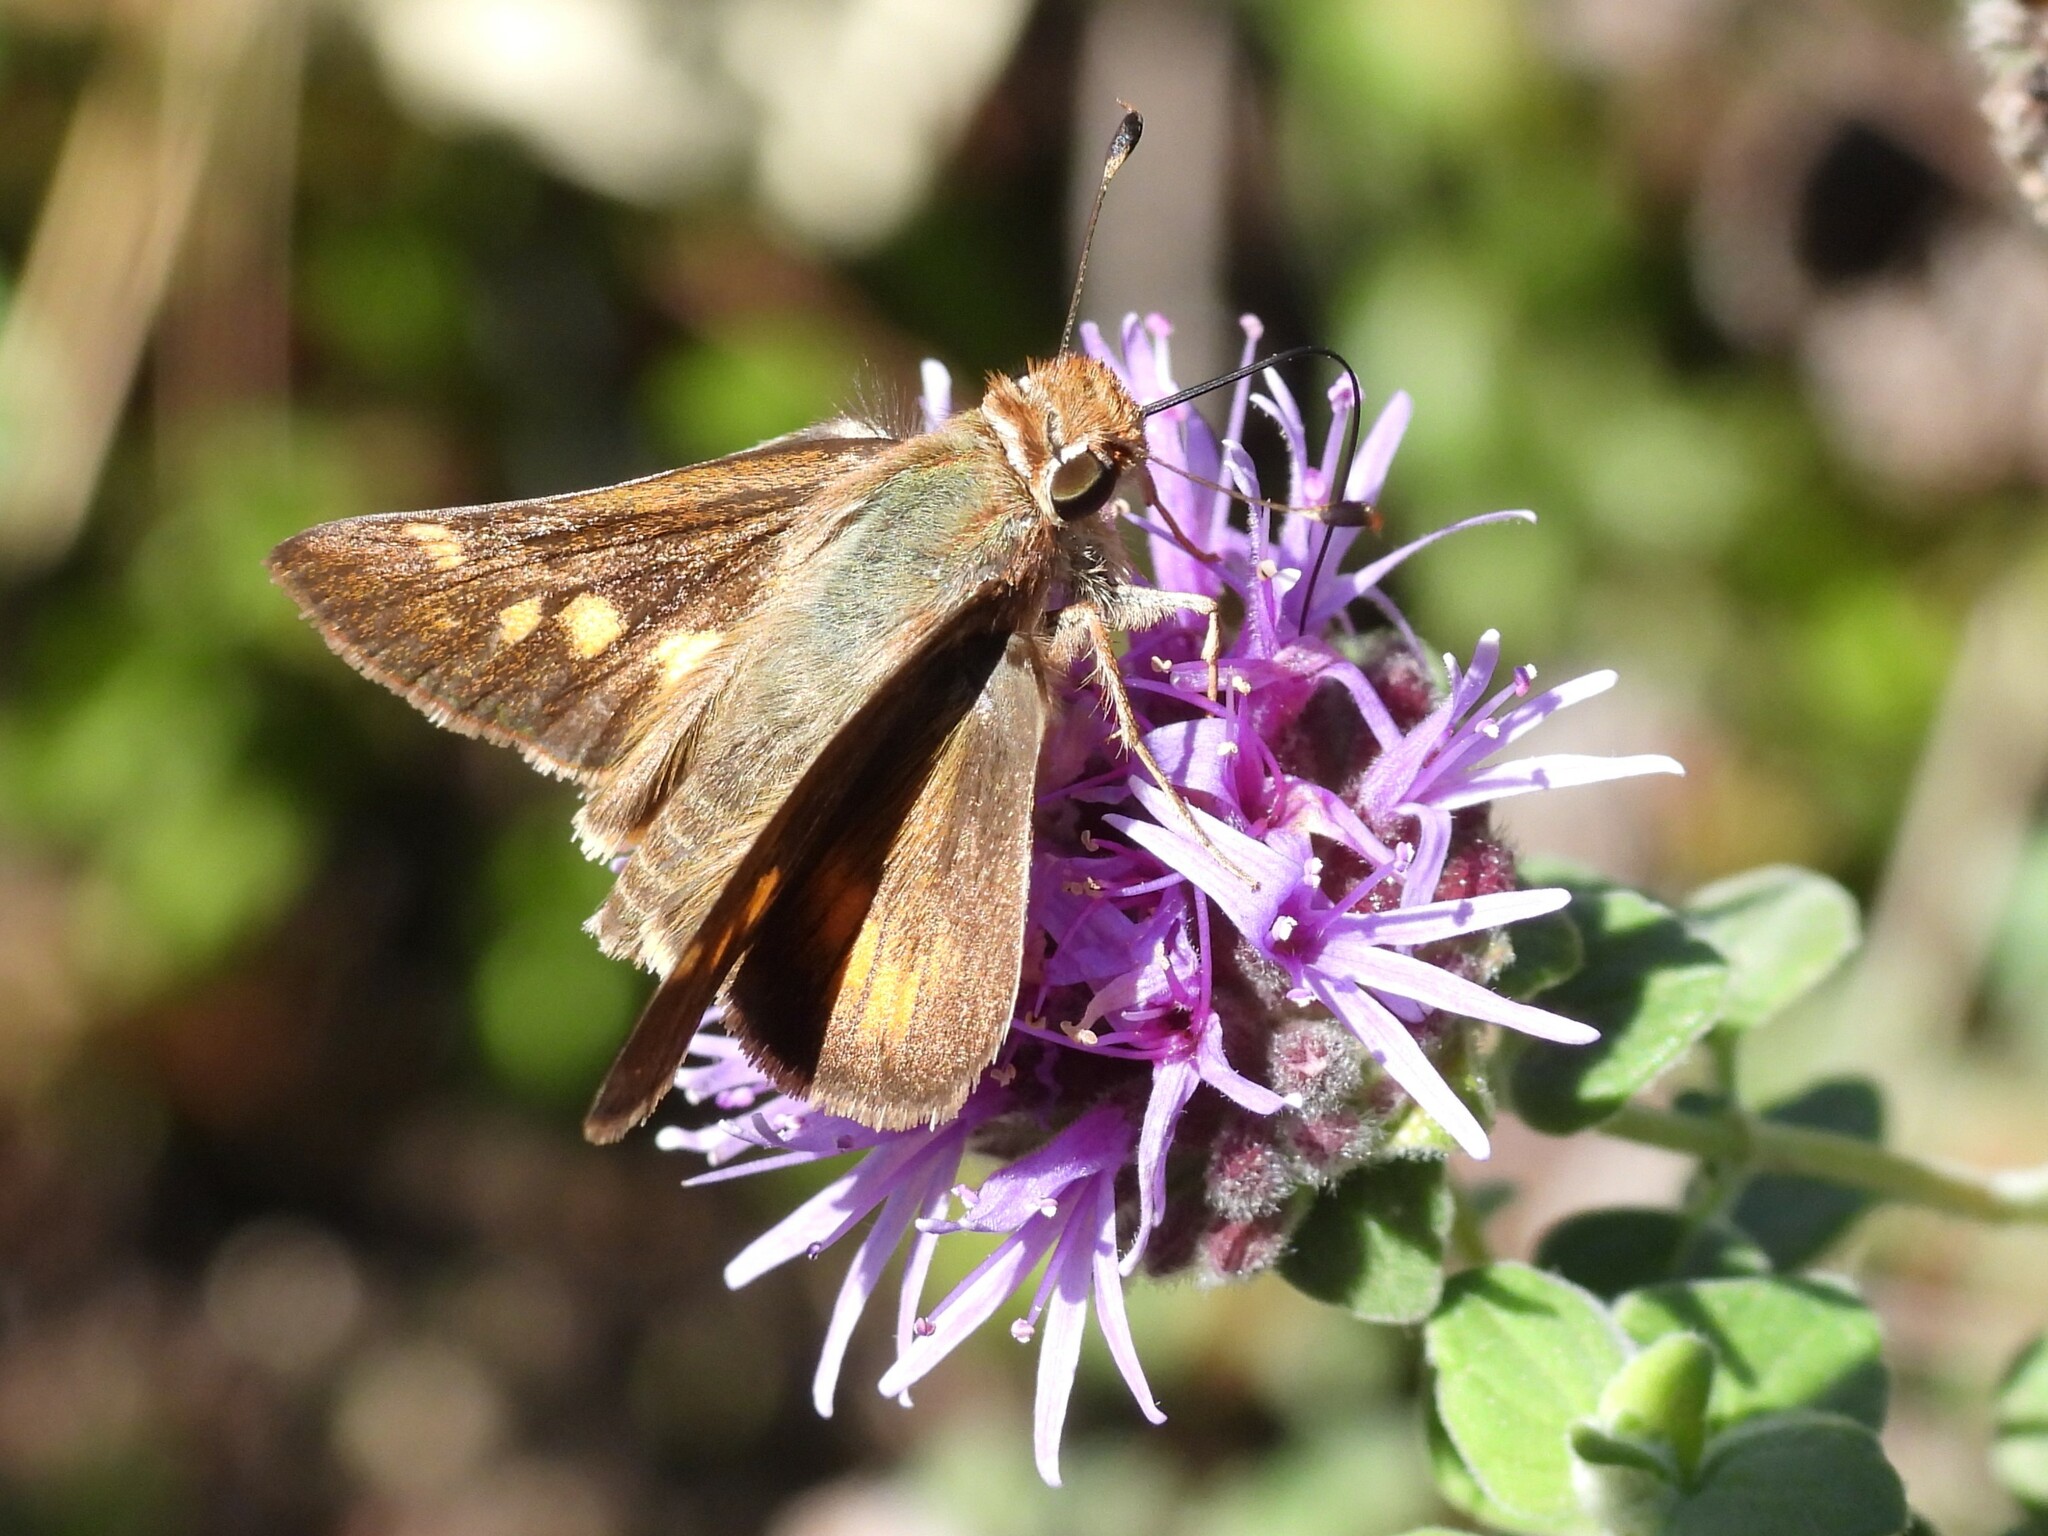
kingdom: Animalia
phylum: Arthropoda
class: Insecta
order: Lepidoptera
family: Hesperiidae
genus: Lon
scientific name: Lon melane
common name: Umber skipper
